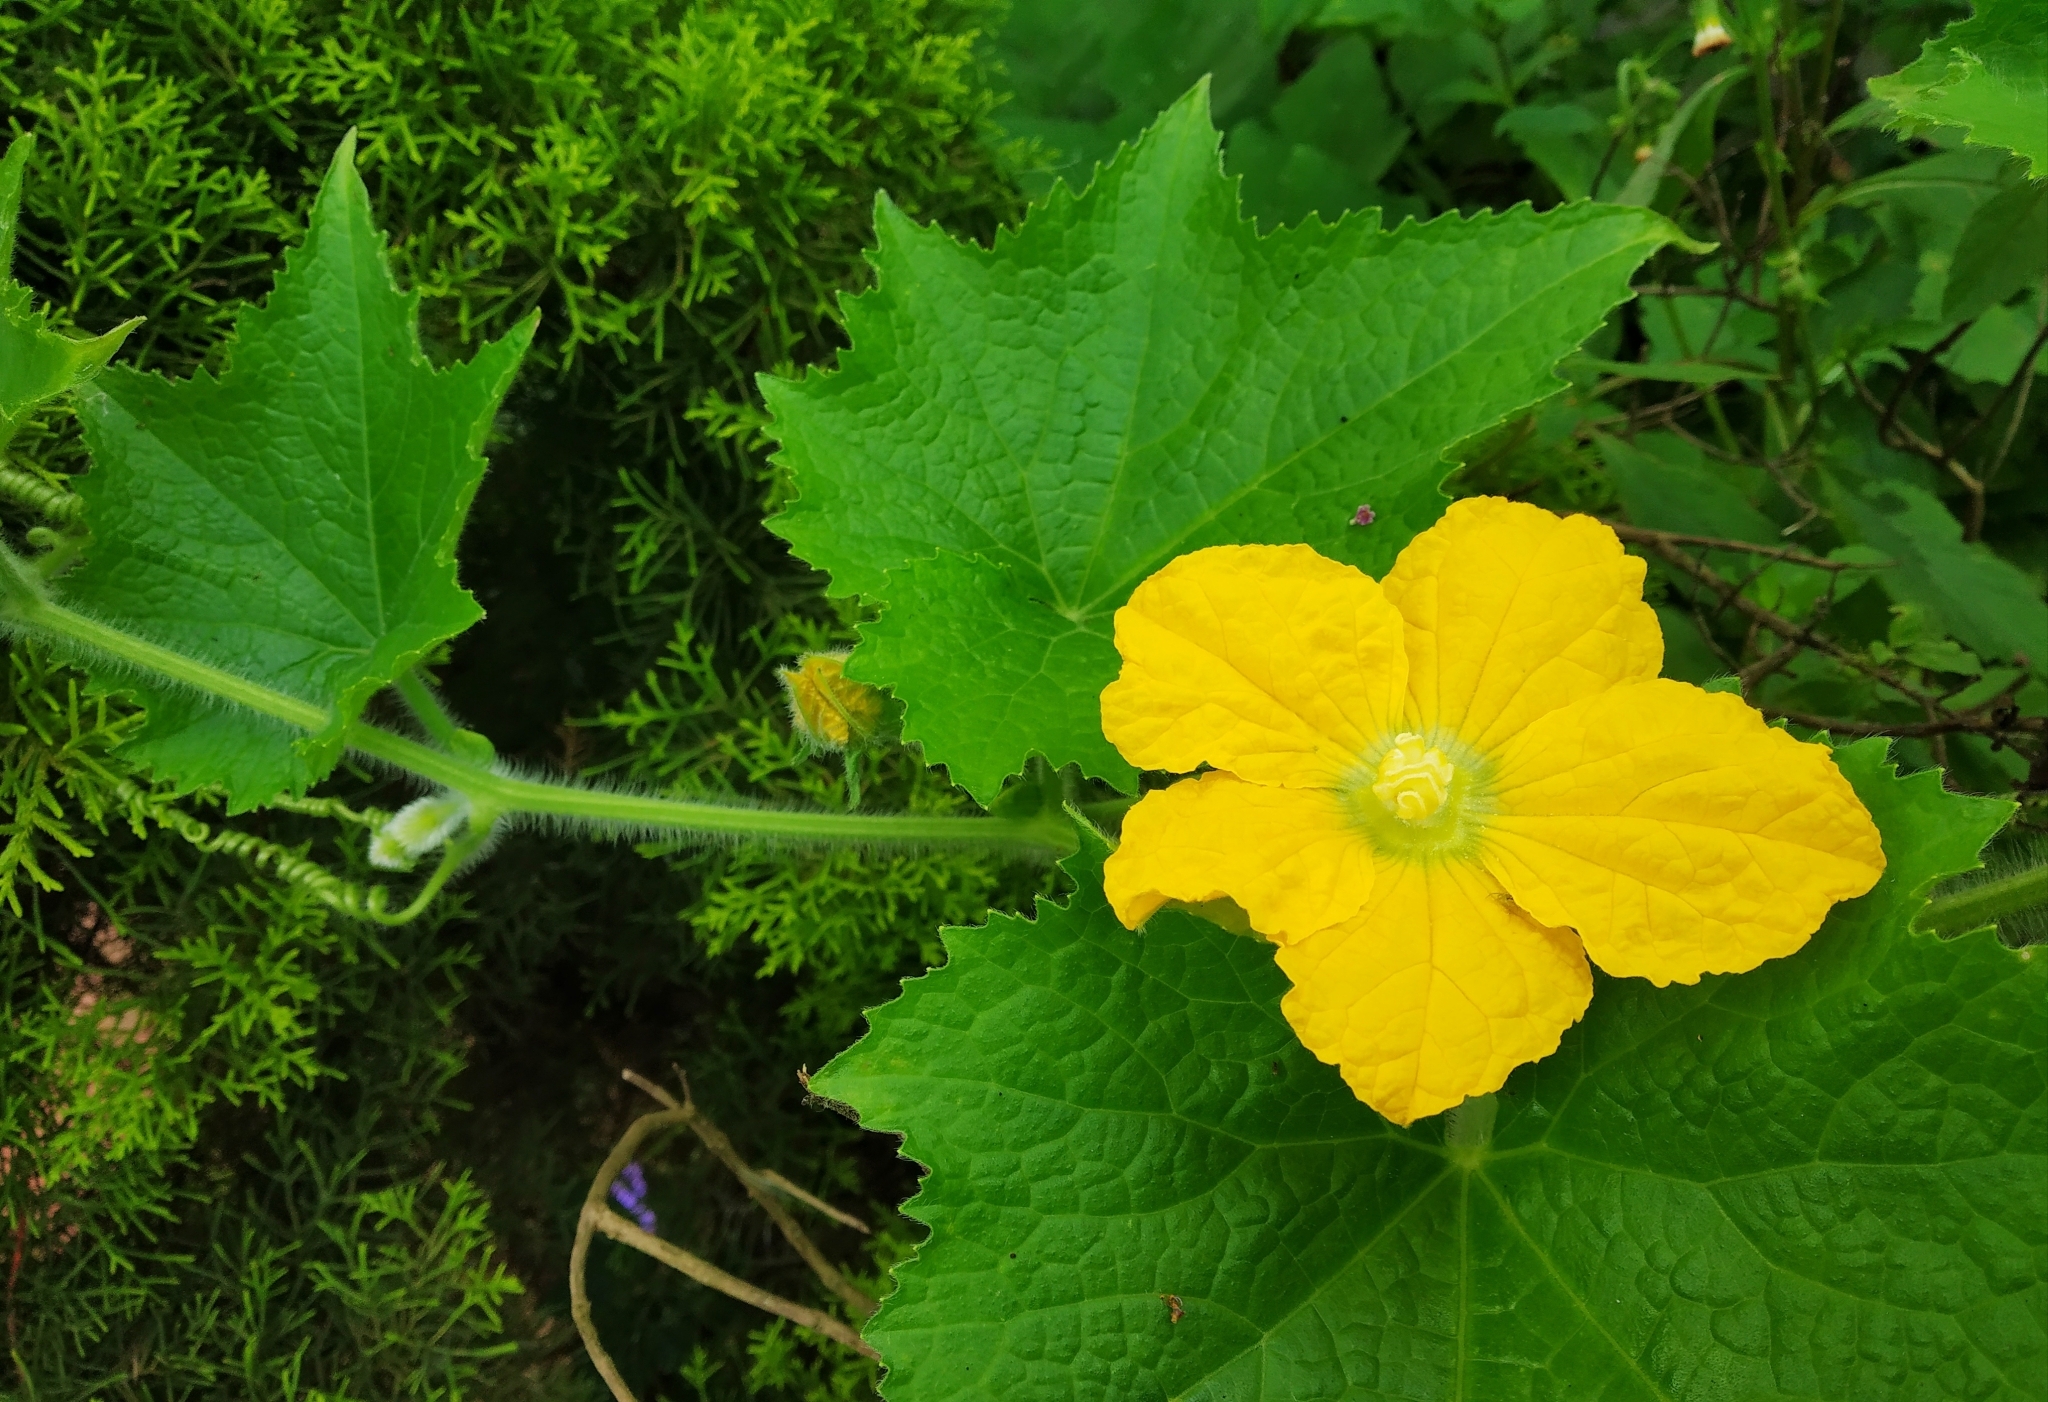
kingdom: Plantae
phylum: Tracheophyta
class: Magnoliopsida
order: Cucurbitales
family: Cucurbitaceae
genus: Benincasa
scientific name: Benincasa hispida
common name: Chinese-watermelon
